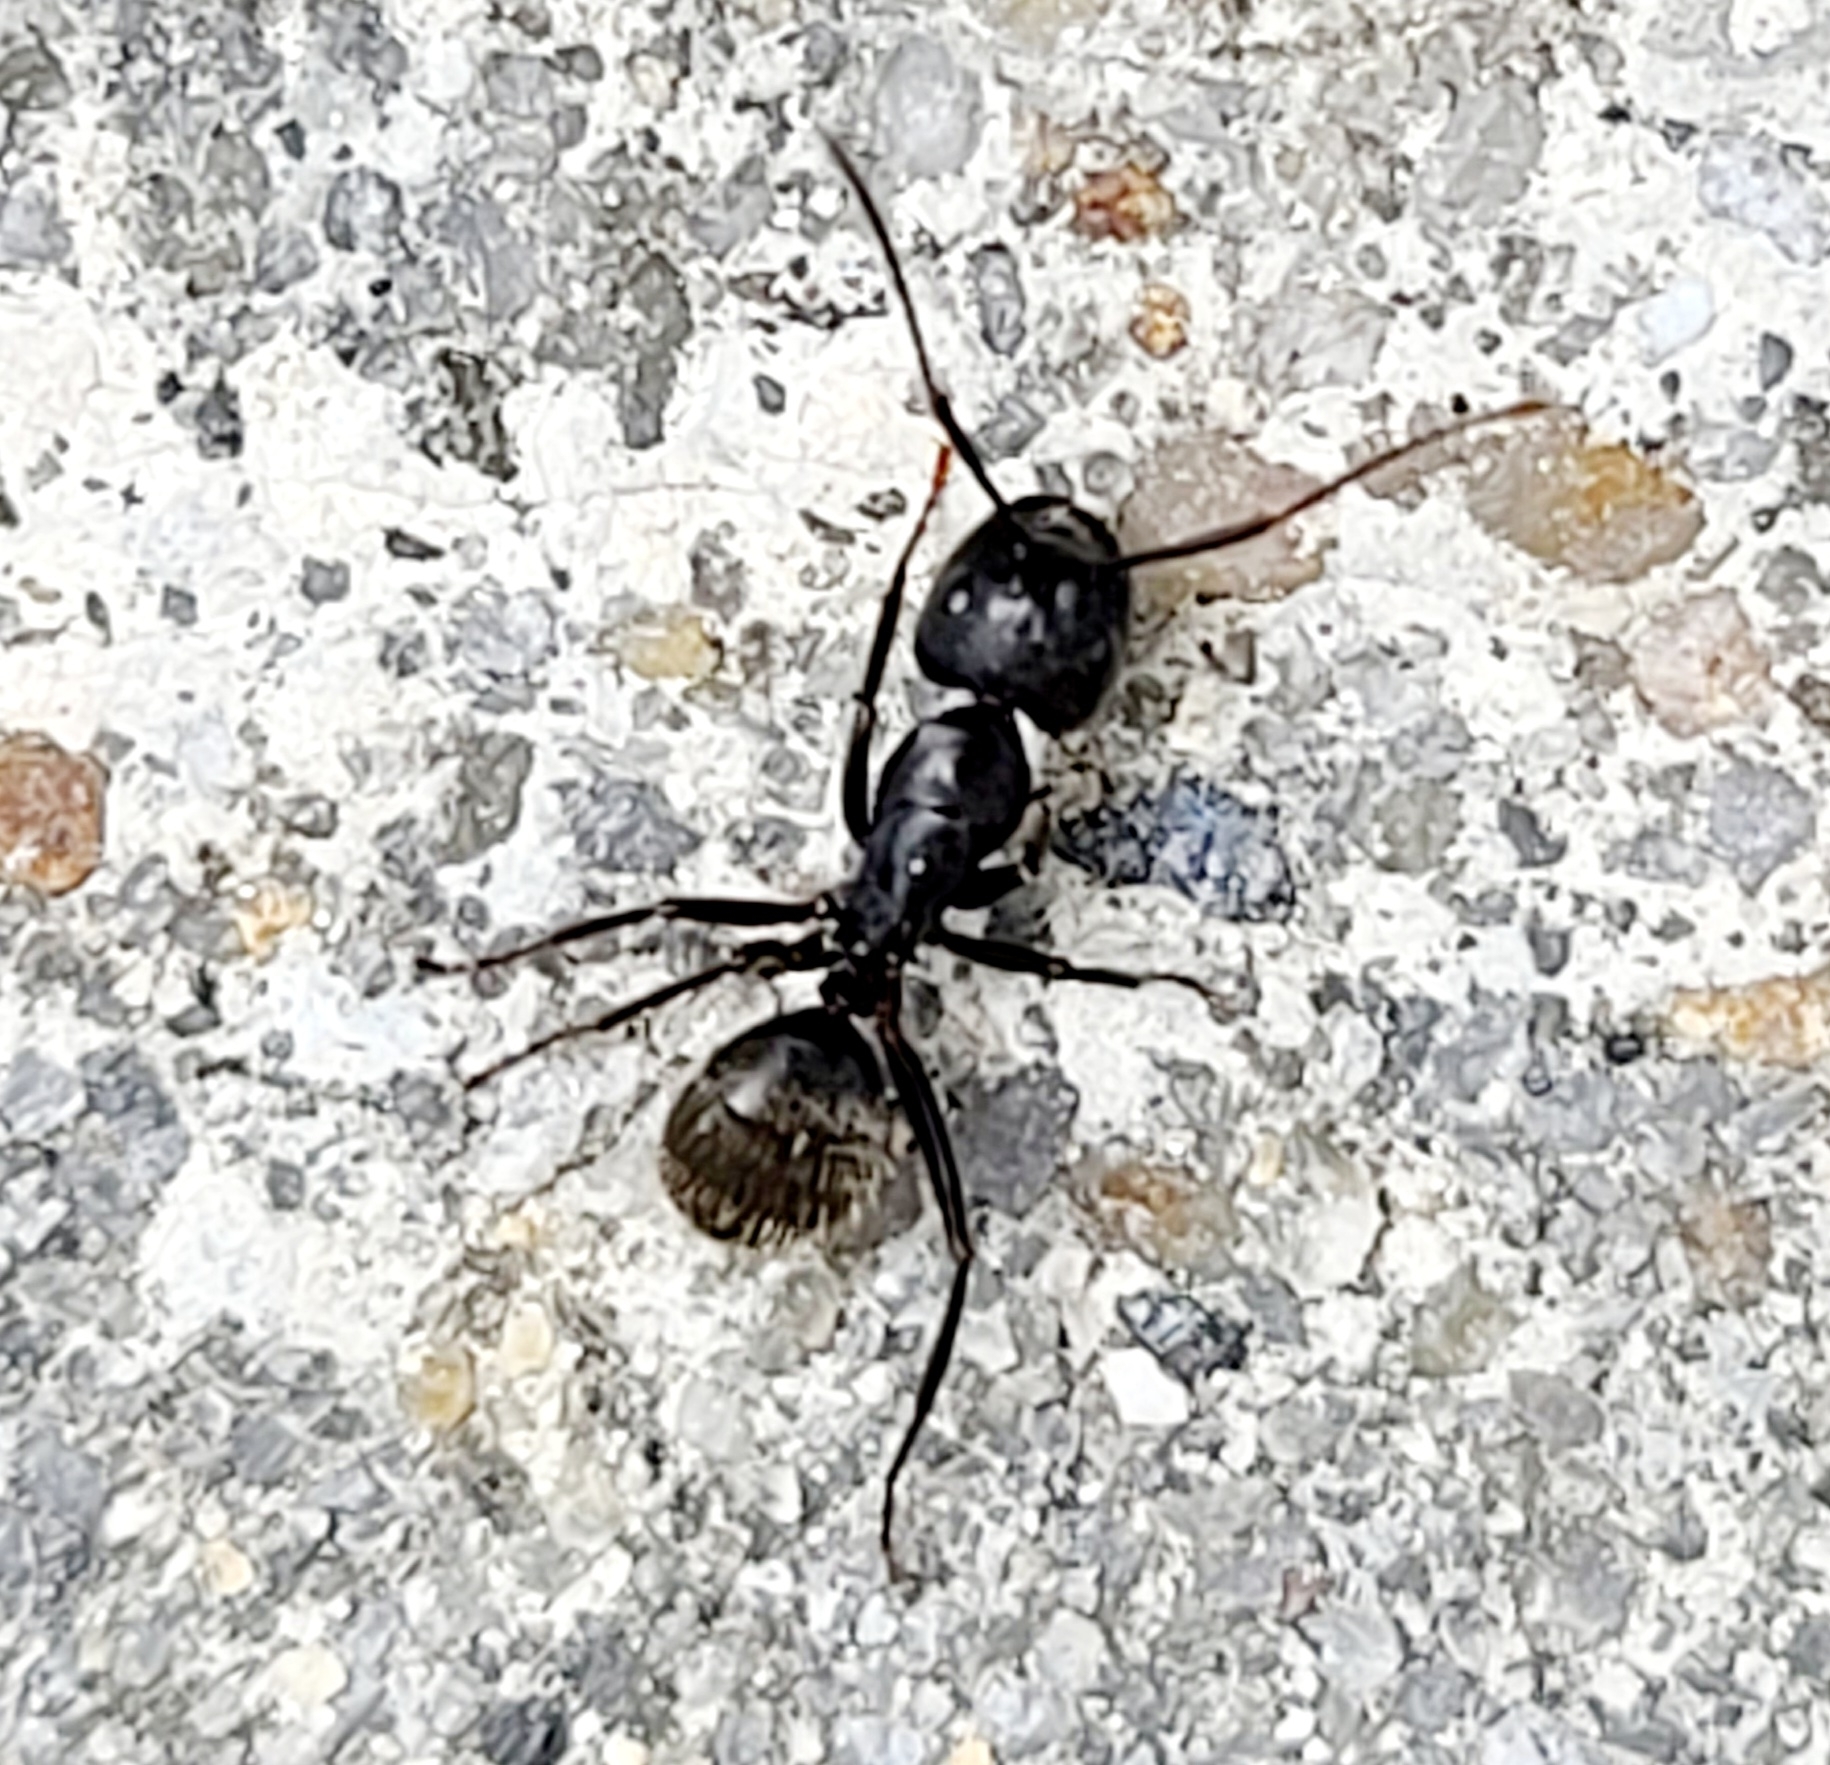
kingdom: Animalia
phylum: Arthropoda
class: Insecta
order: Hymenoptera
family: Formicidae
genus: Camponotus
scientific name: Camponotus pennsylvanicus
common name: Black carpenter ant
